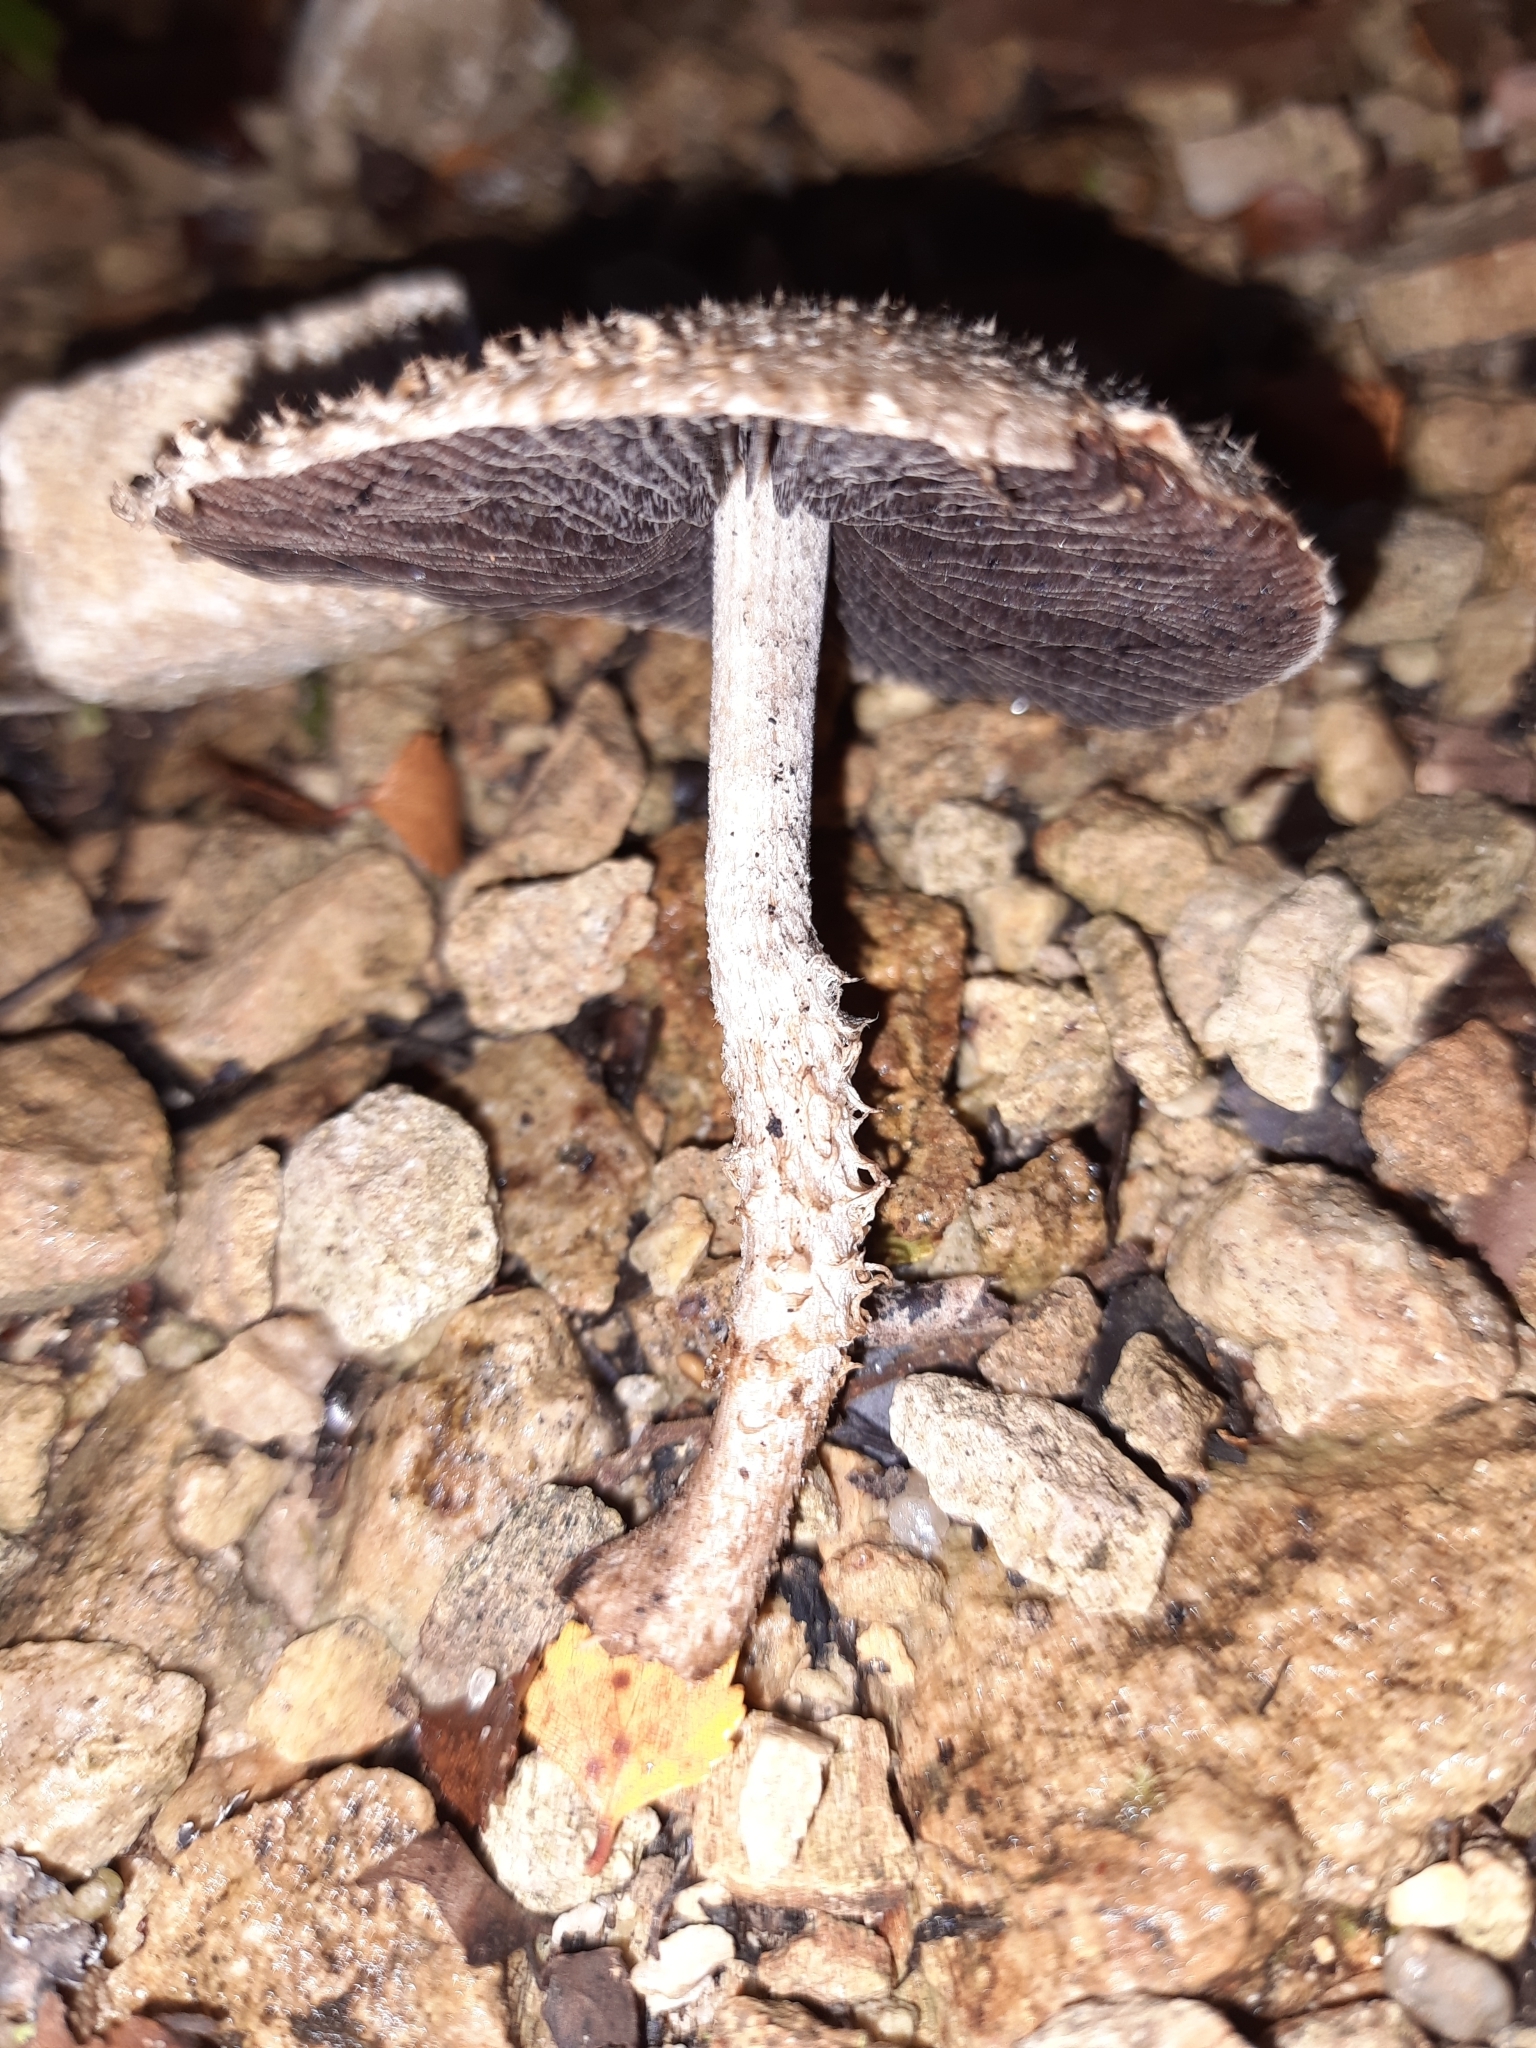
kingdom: Fungi
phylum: Basidiomycota
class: Agaricomycetes
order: Agaricales
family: Psathyrellaceae
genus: Psathyrella
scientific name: Psathyrella asperospora
